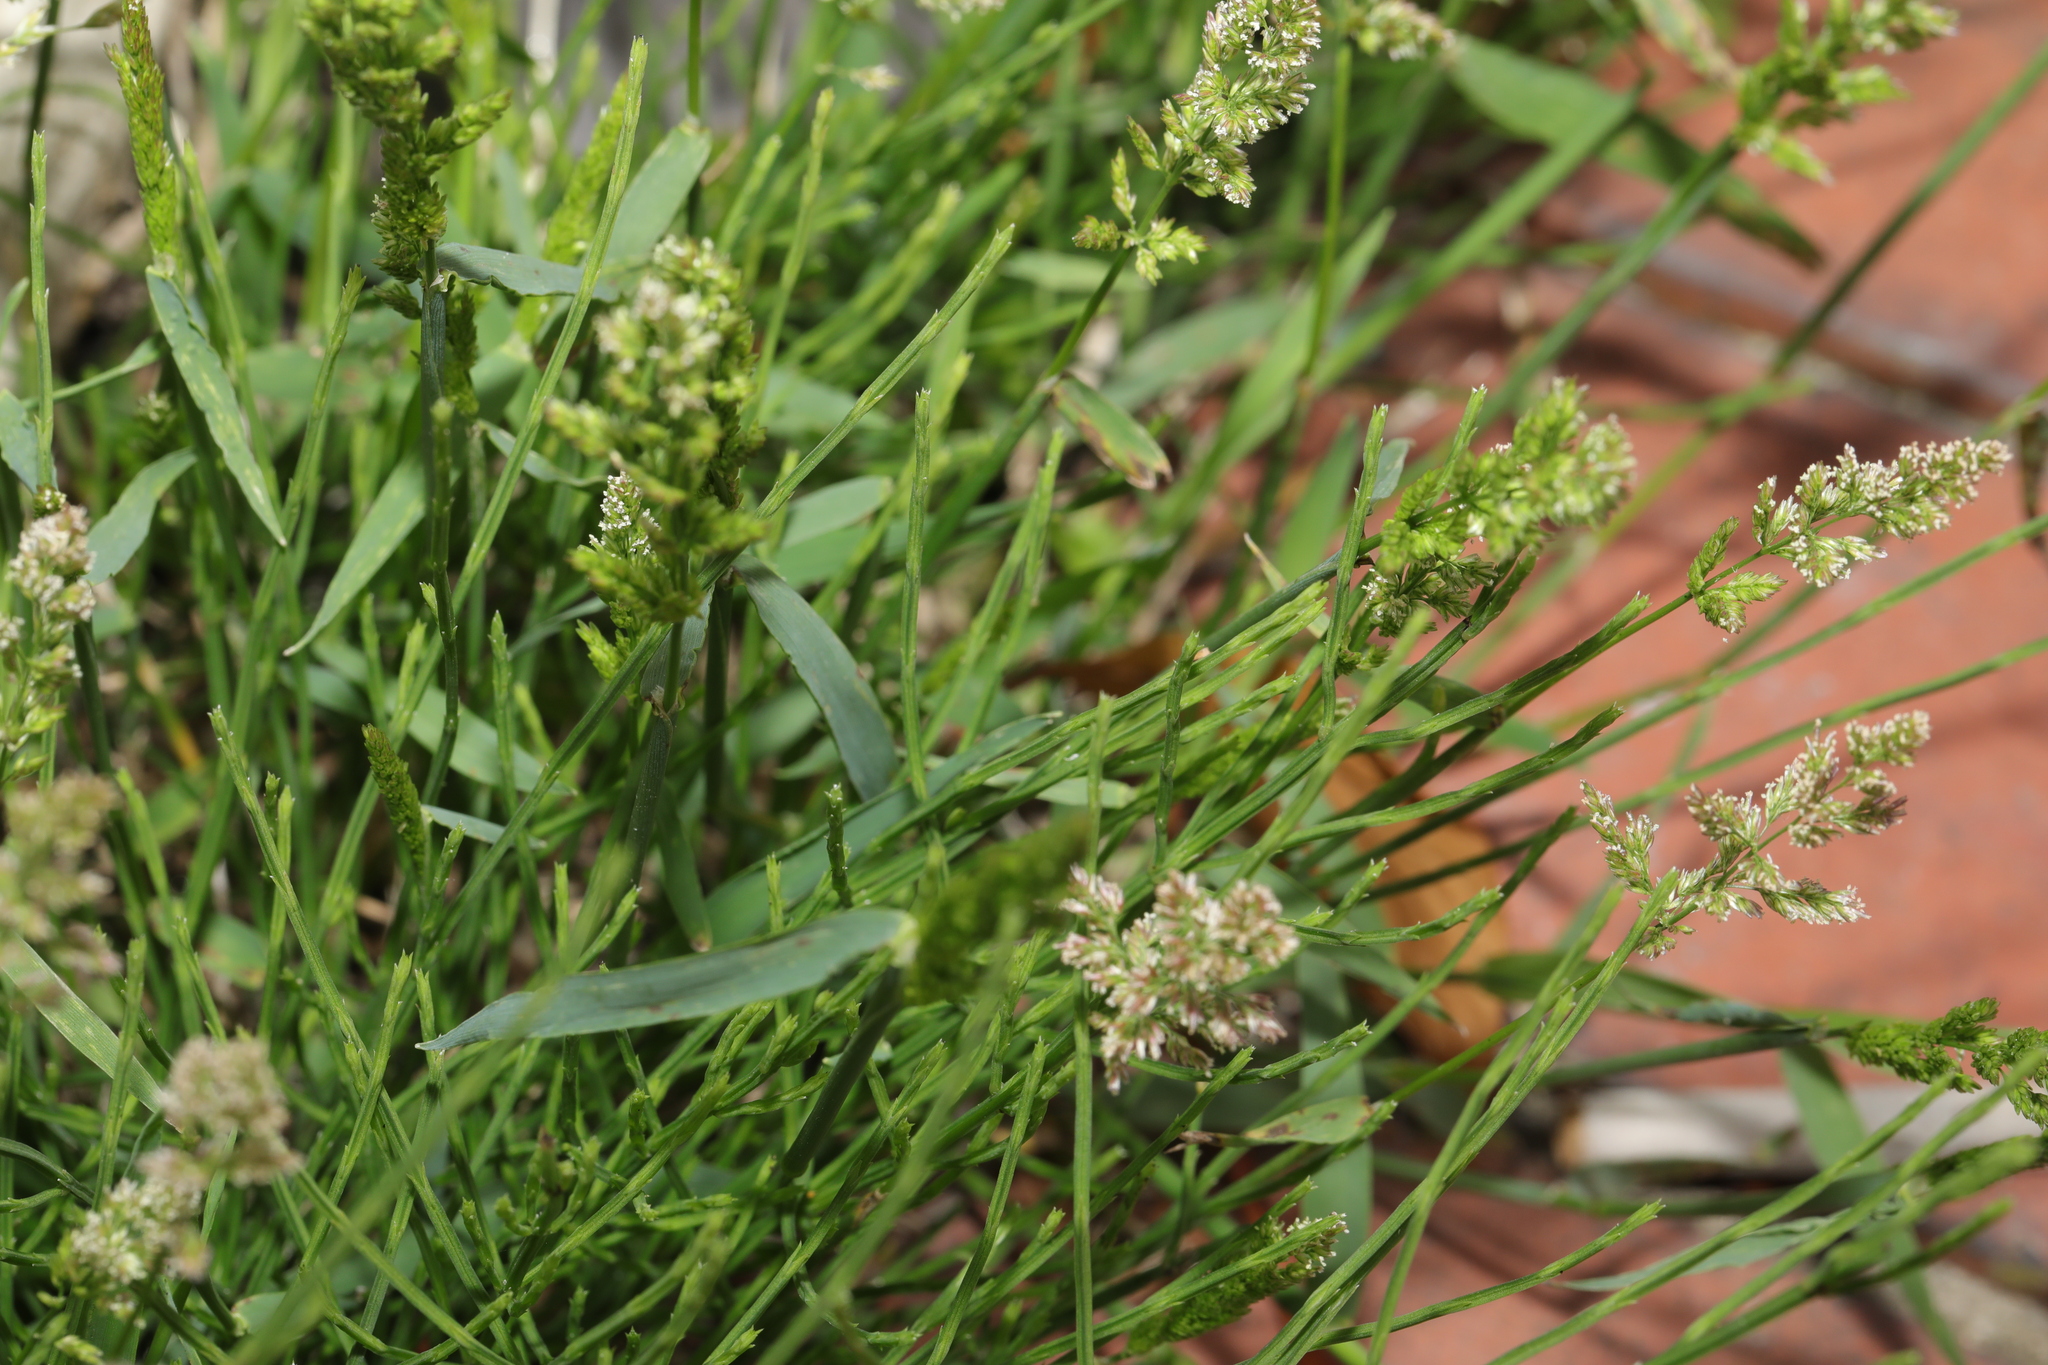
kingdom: Plantae
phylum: Tracheophyta
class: Liliopsida
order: Poales
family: Poaceae
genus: Polypogon
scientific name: Polypogon viridis
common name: Water bent
